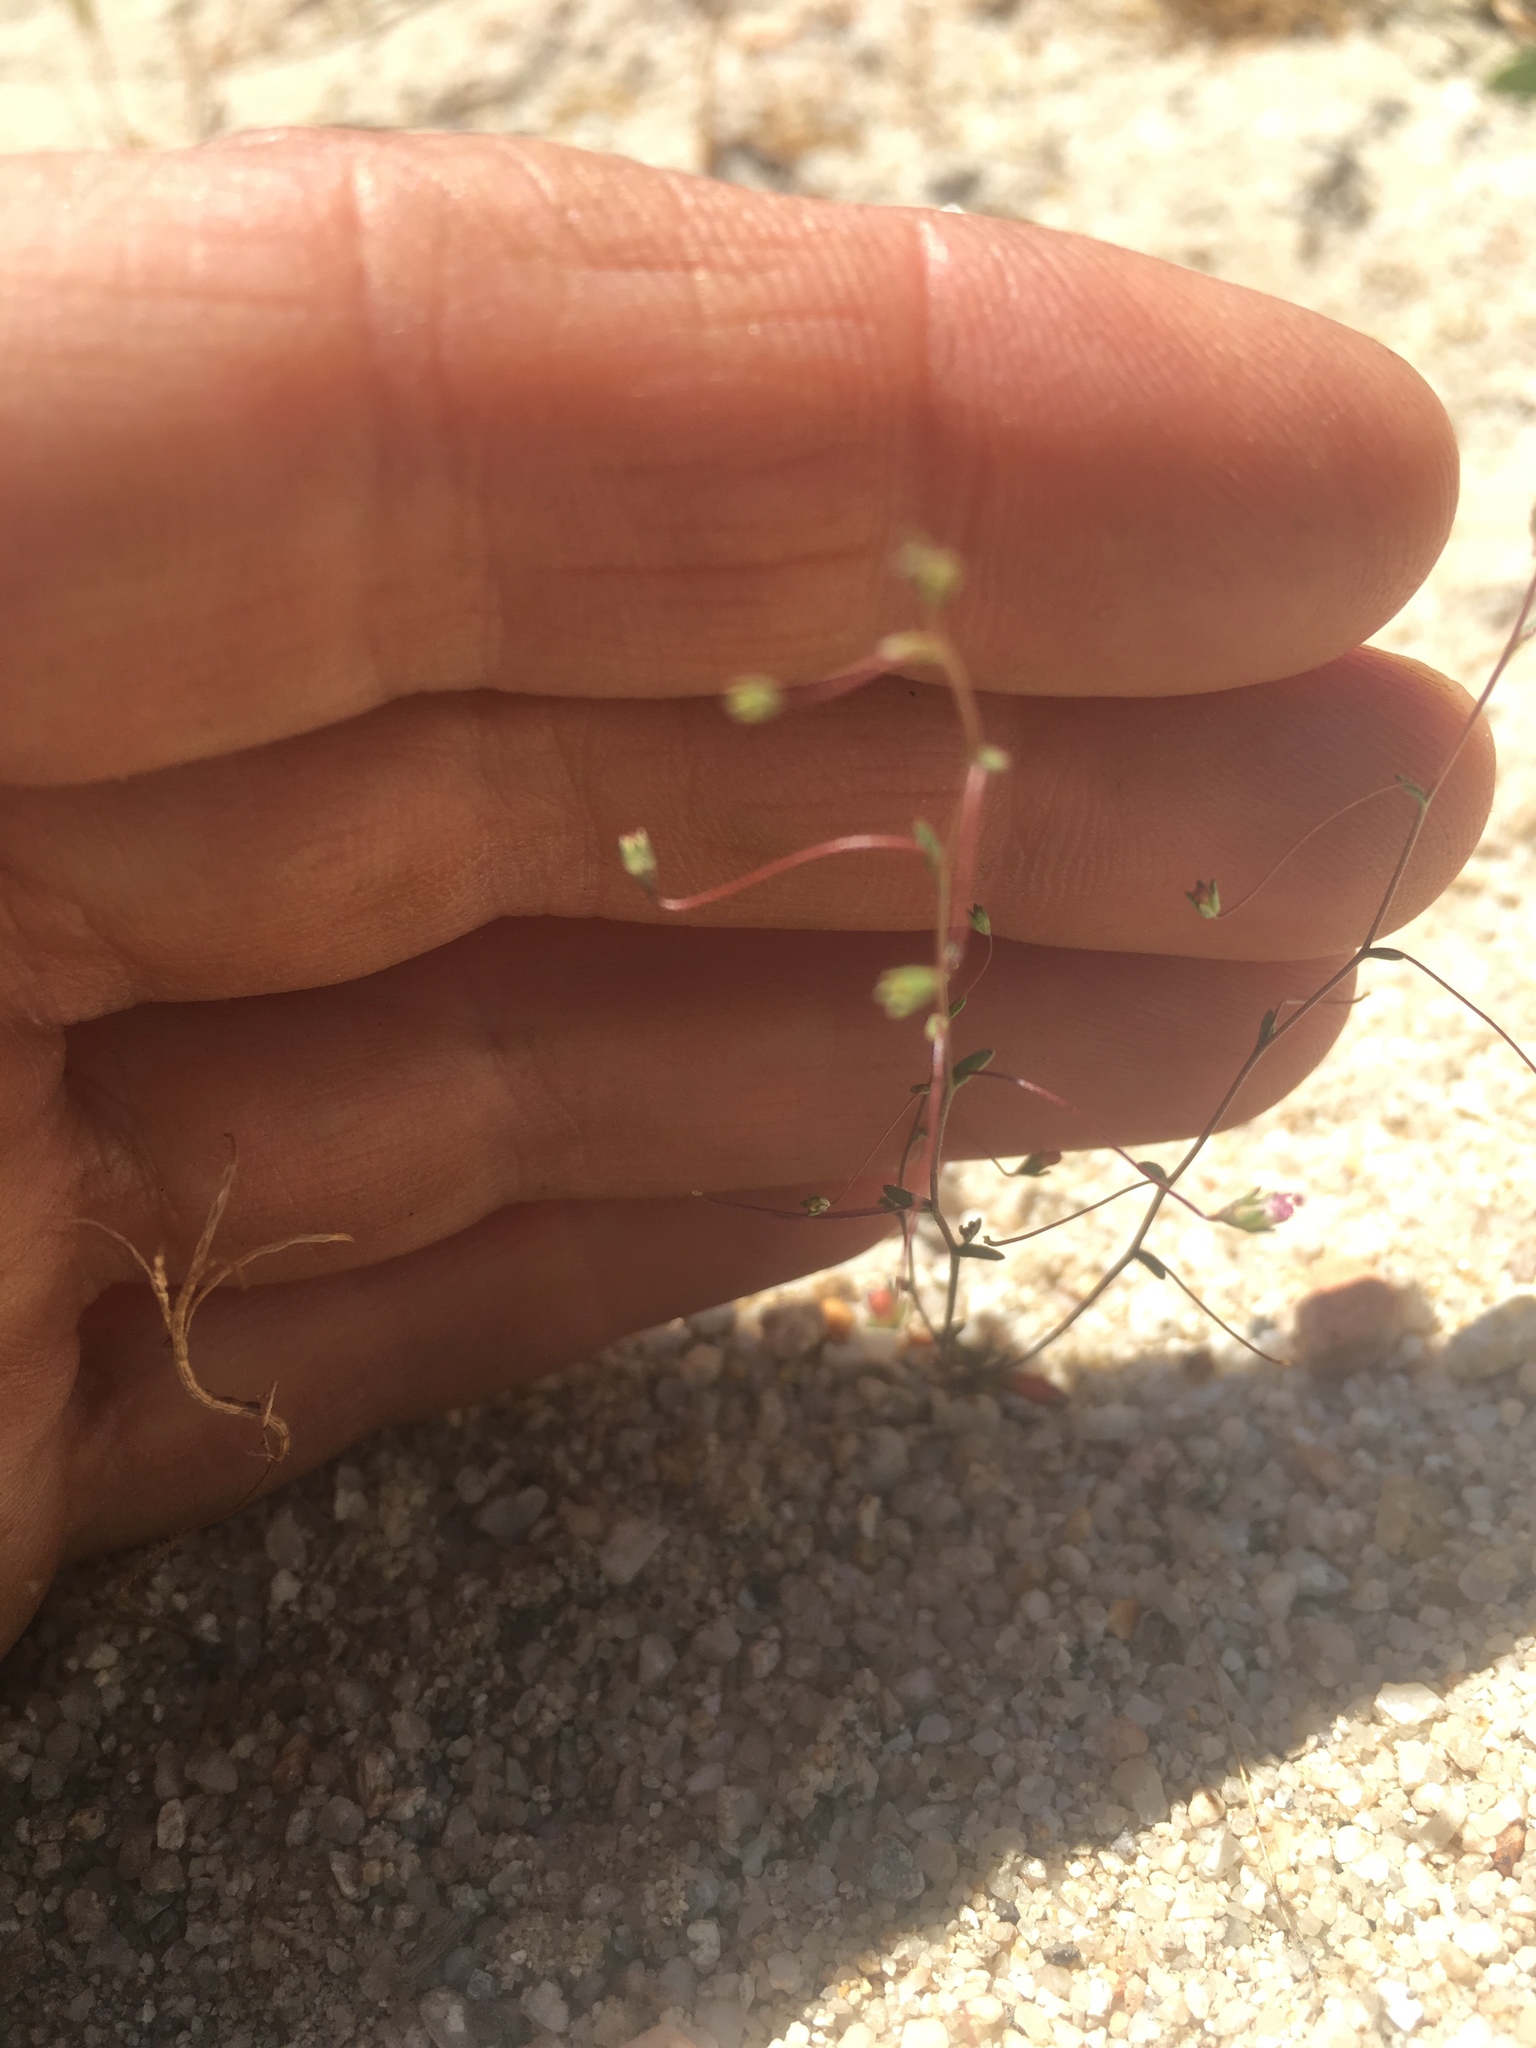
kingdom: Plantae
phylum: Tracheophyta
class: Magnoliopsida
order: Asterales
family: Campanulaceae
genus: Nemacladus
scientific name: Nemacladus secundiflorus
